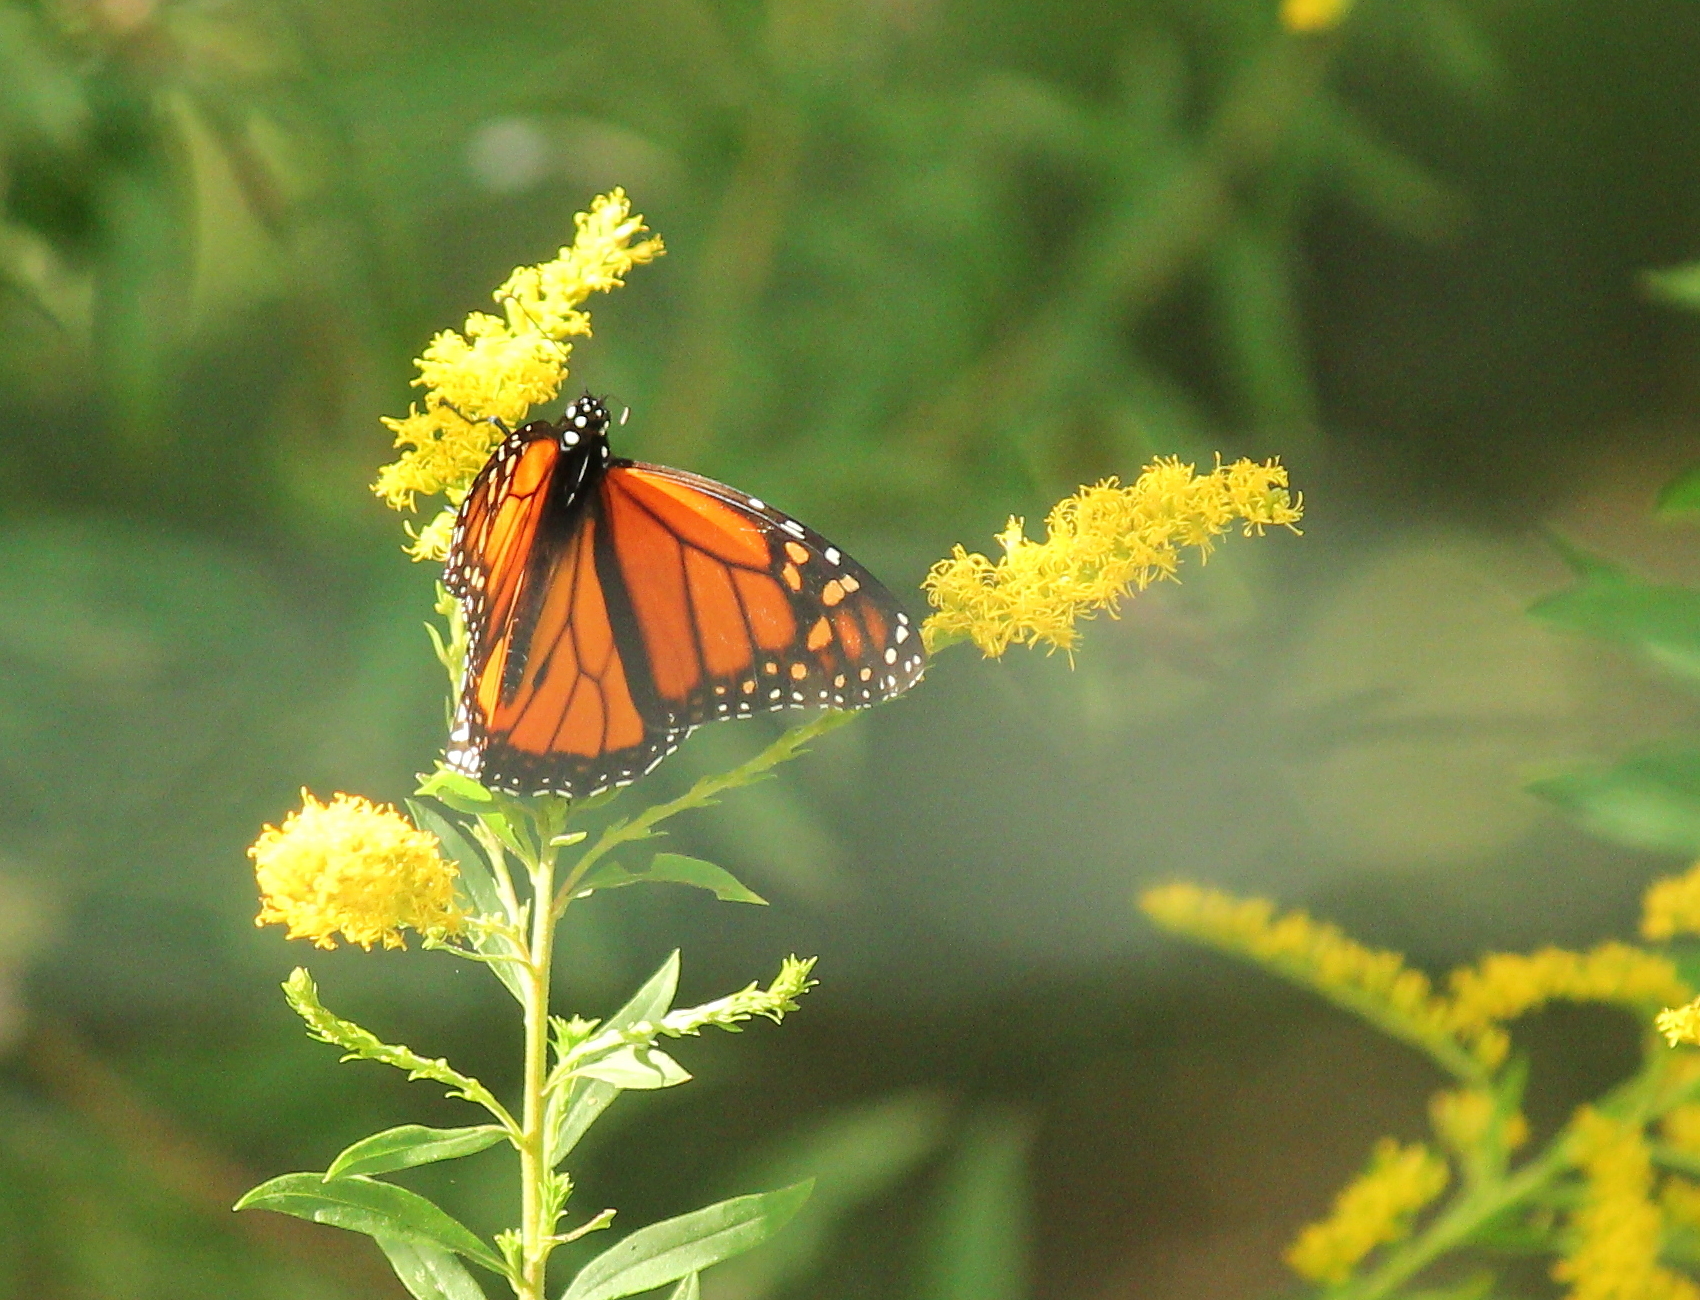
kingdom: Animalia
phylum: Arthropoda
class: Insecta
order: Lepidoptera
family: Nymphalidae
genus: Danaus
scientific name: Danaus plexippus
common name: Monarch
